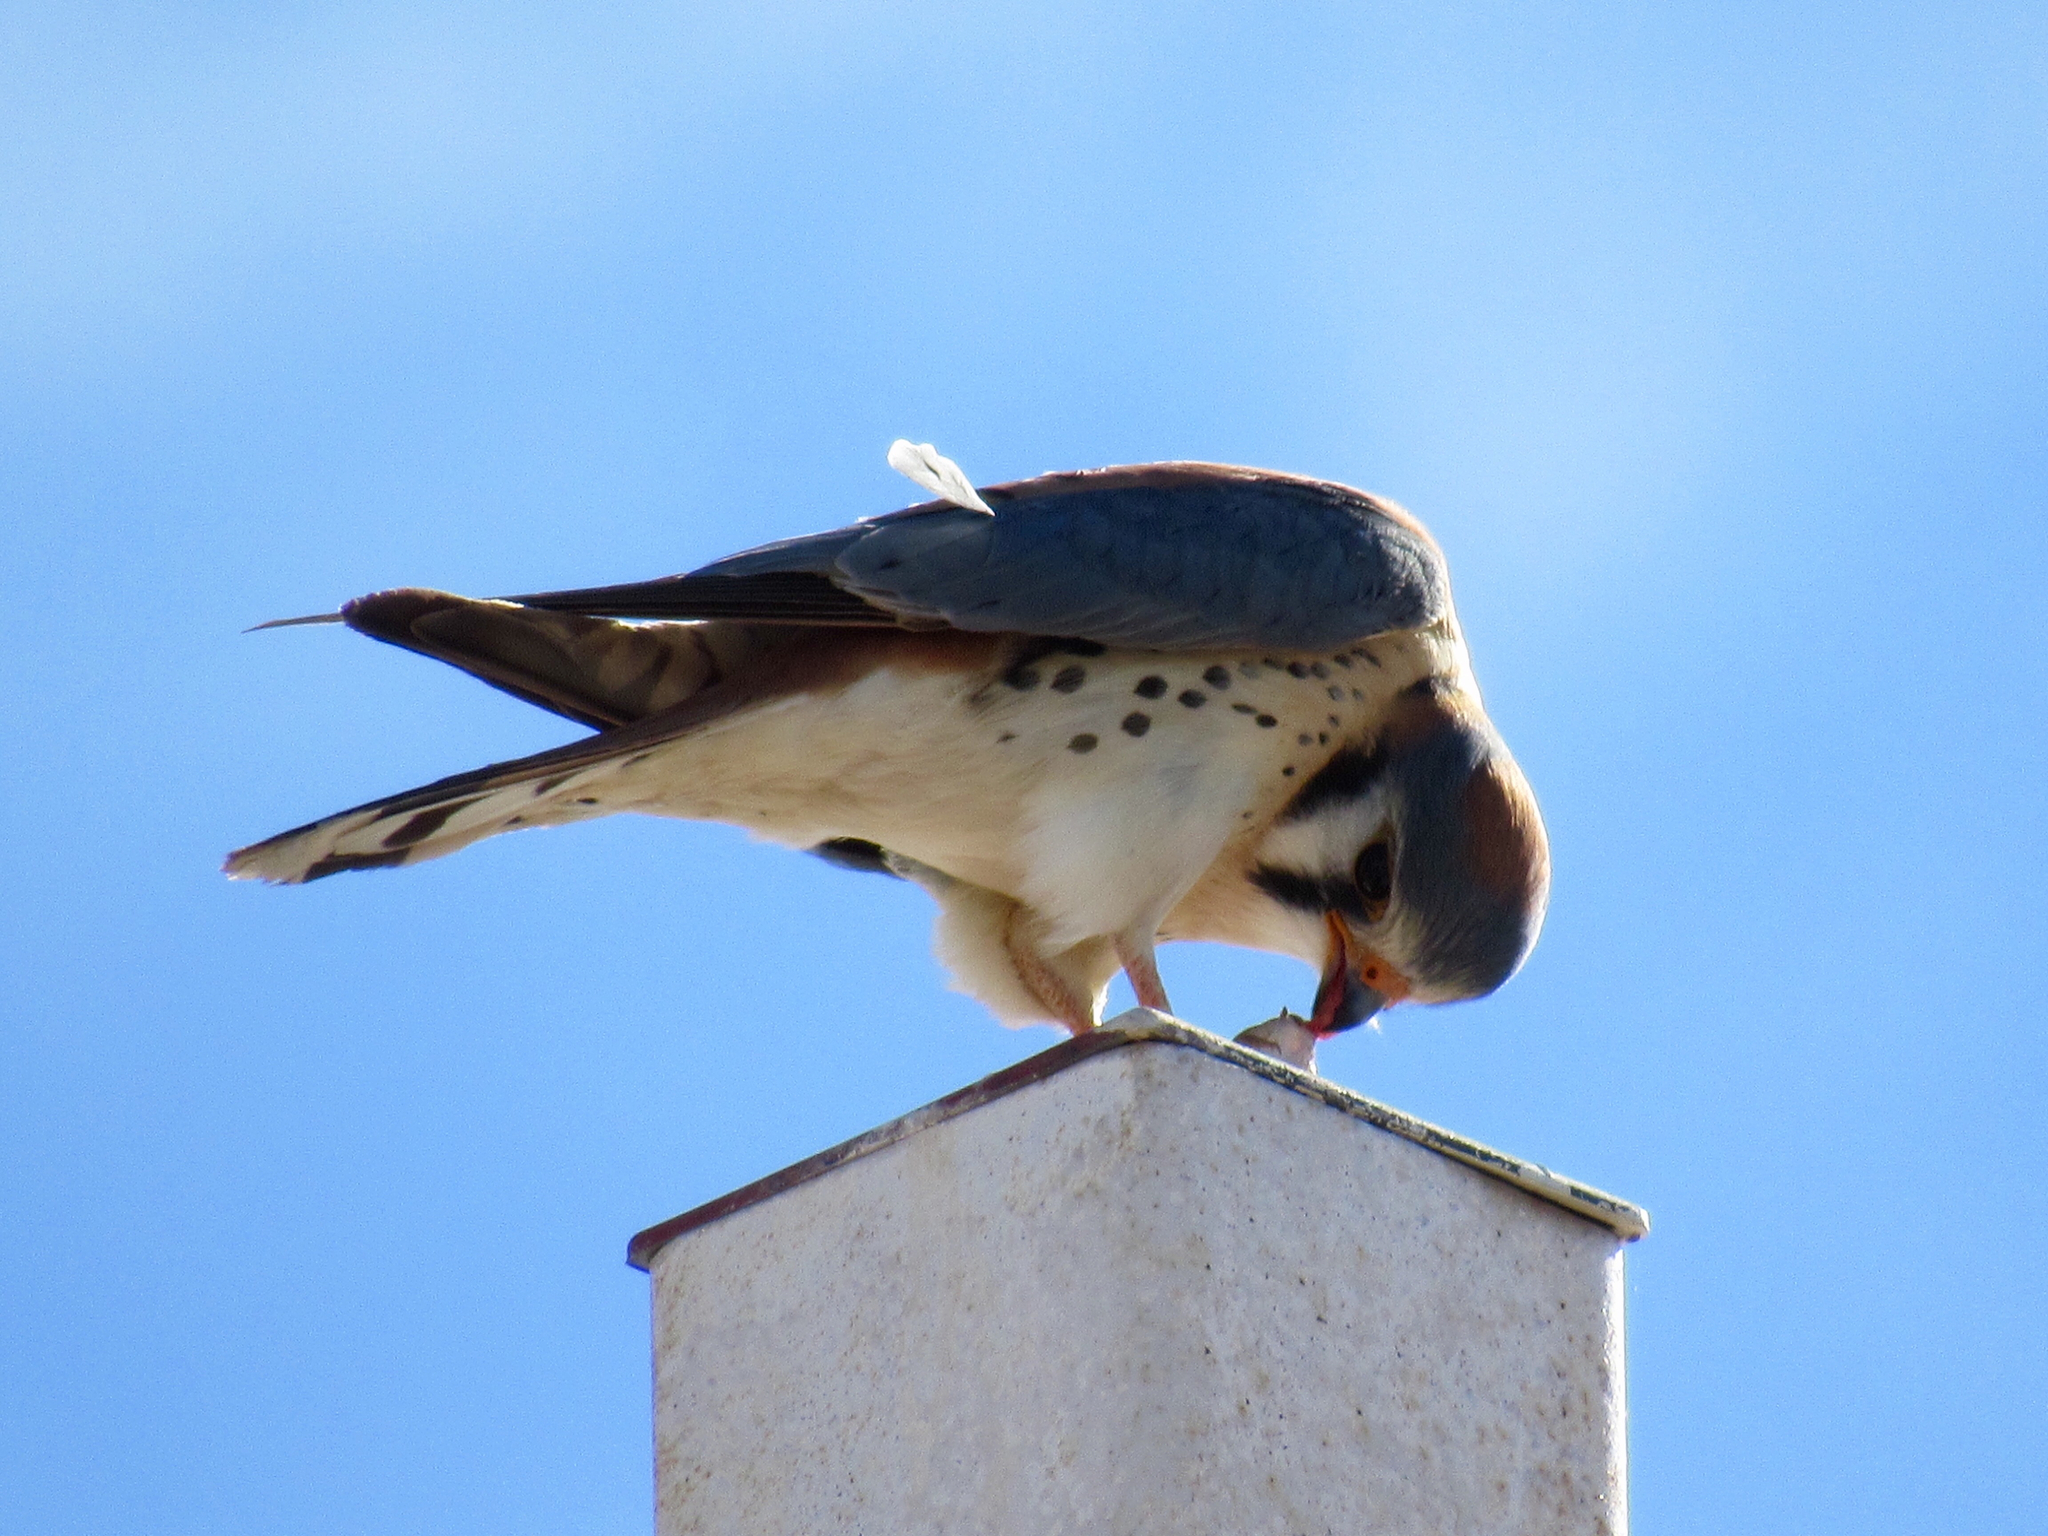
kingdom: Animalia
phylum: Chordata
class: Aves
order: Falconiformes
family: Falconidae
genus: Falco
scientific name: Falco sparverius
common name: American kestrel
